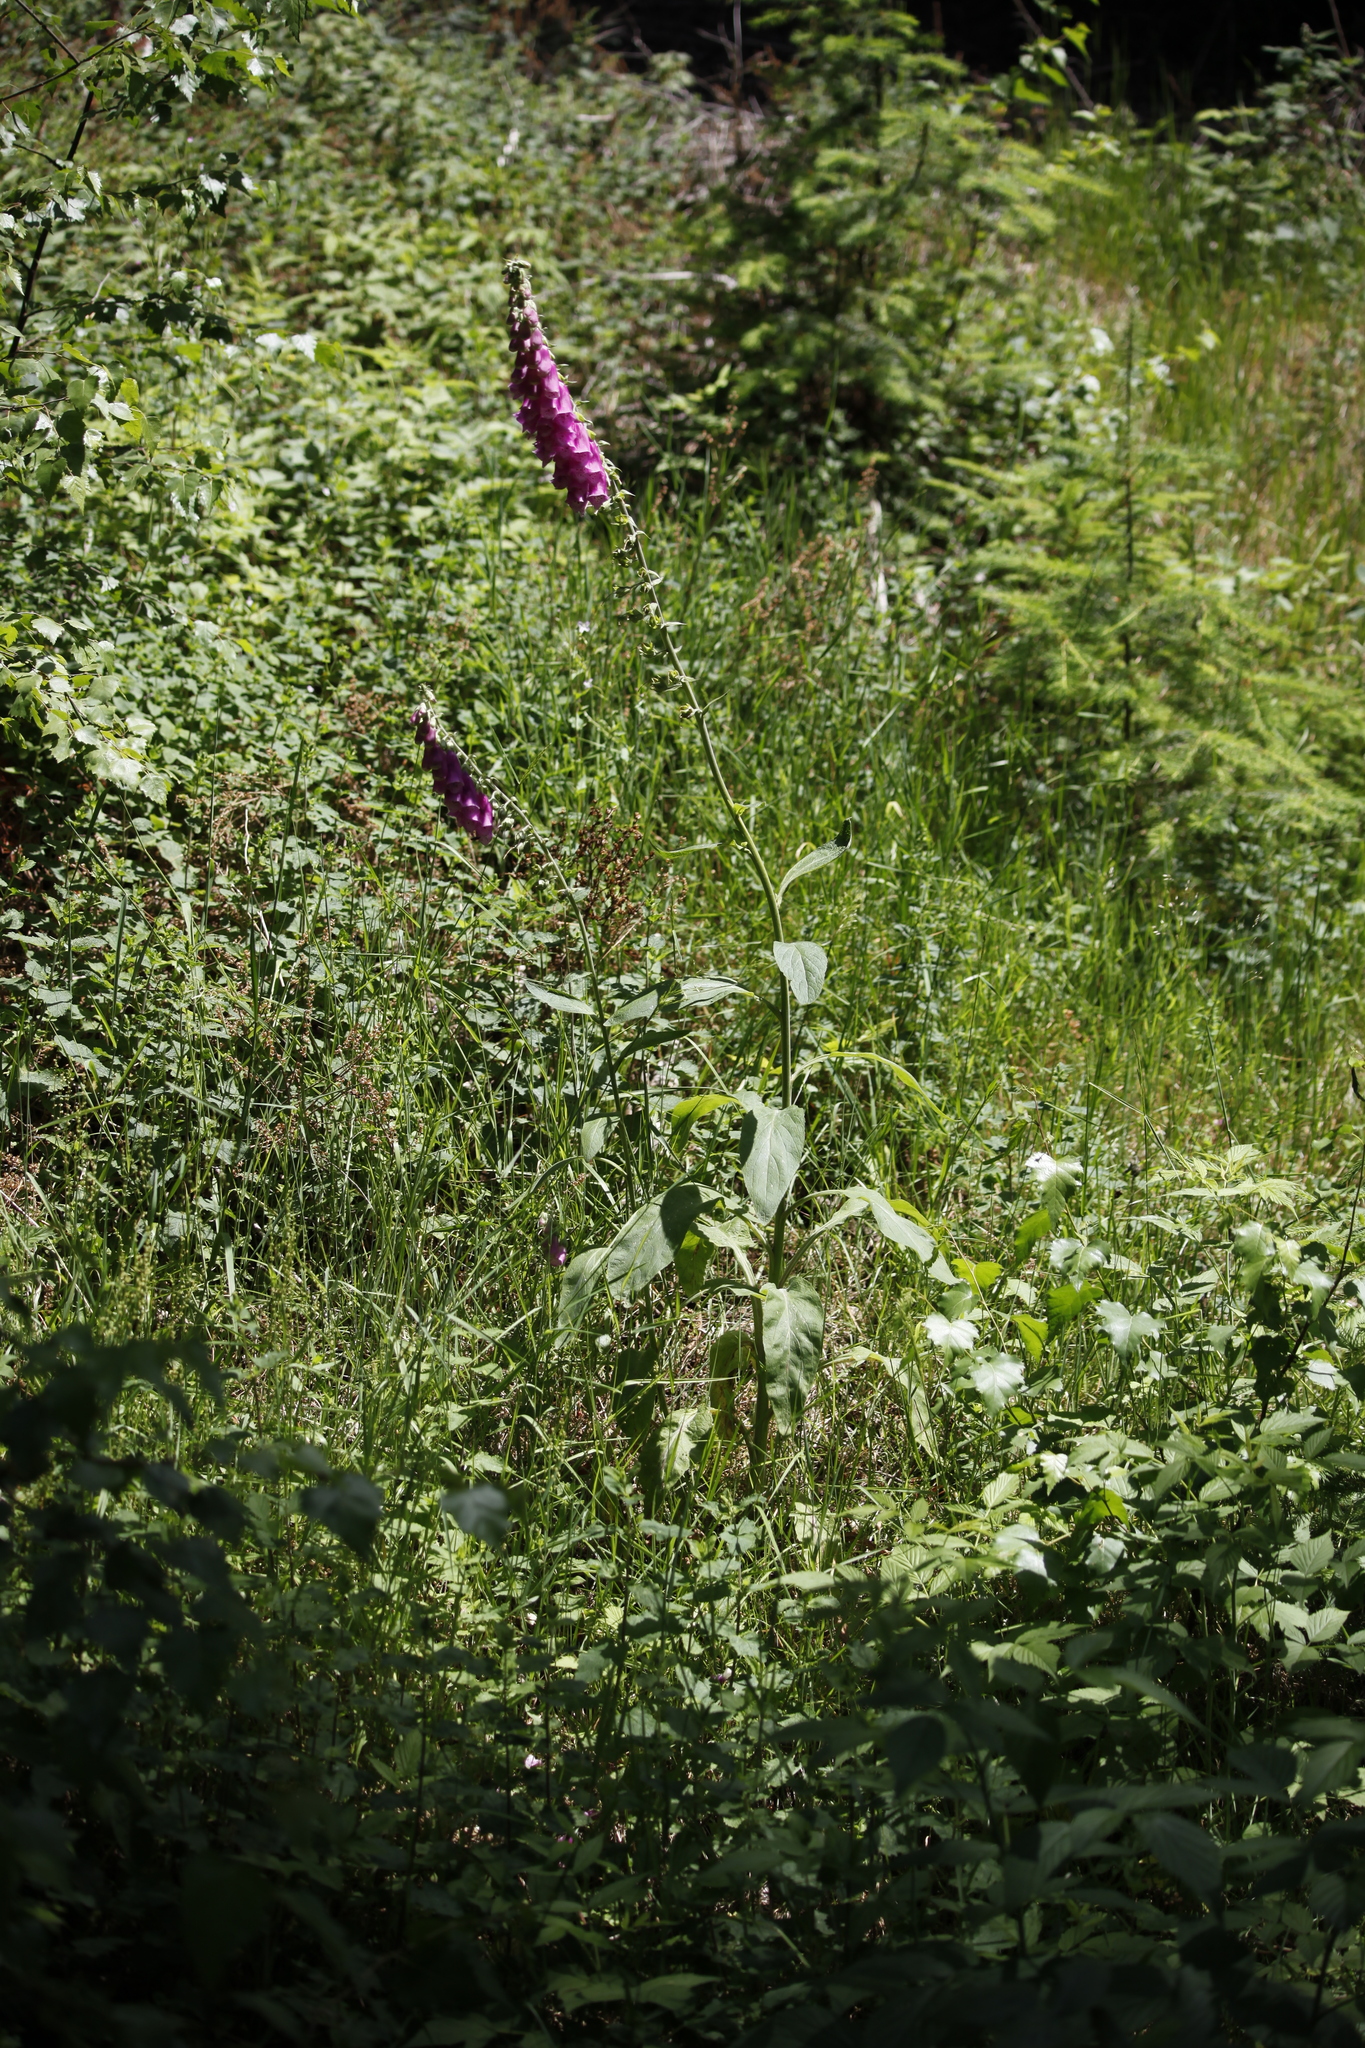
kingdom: Plantae
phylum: Tracheophyta
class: Magnoliopsida
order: Lamiales
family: Plantaginaceae
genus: Digitalis
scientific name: Digitalis purpurea
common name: Foxglove
